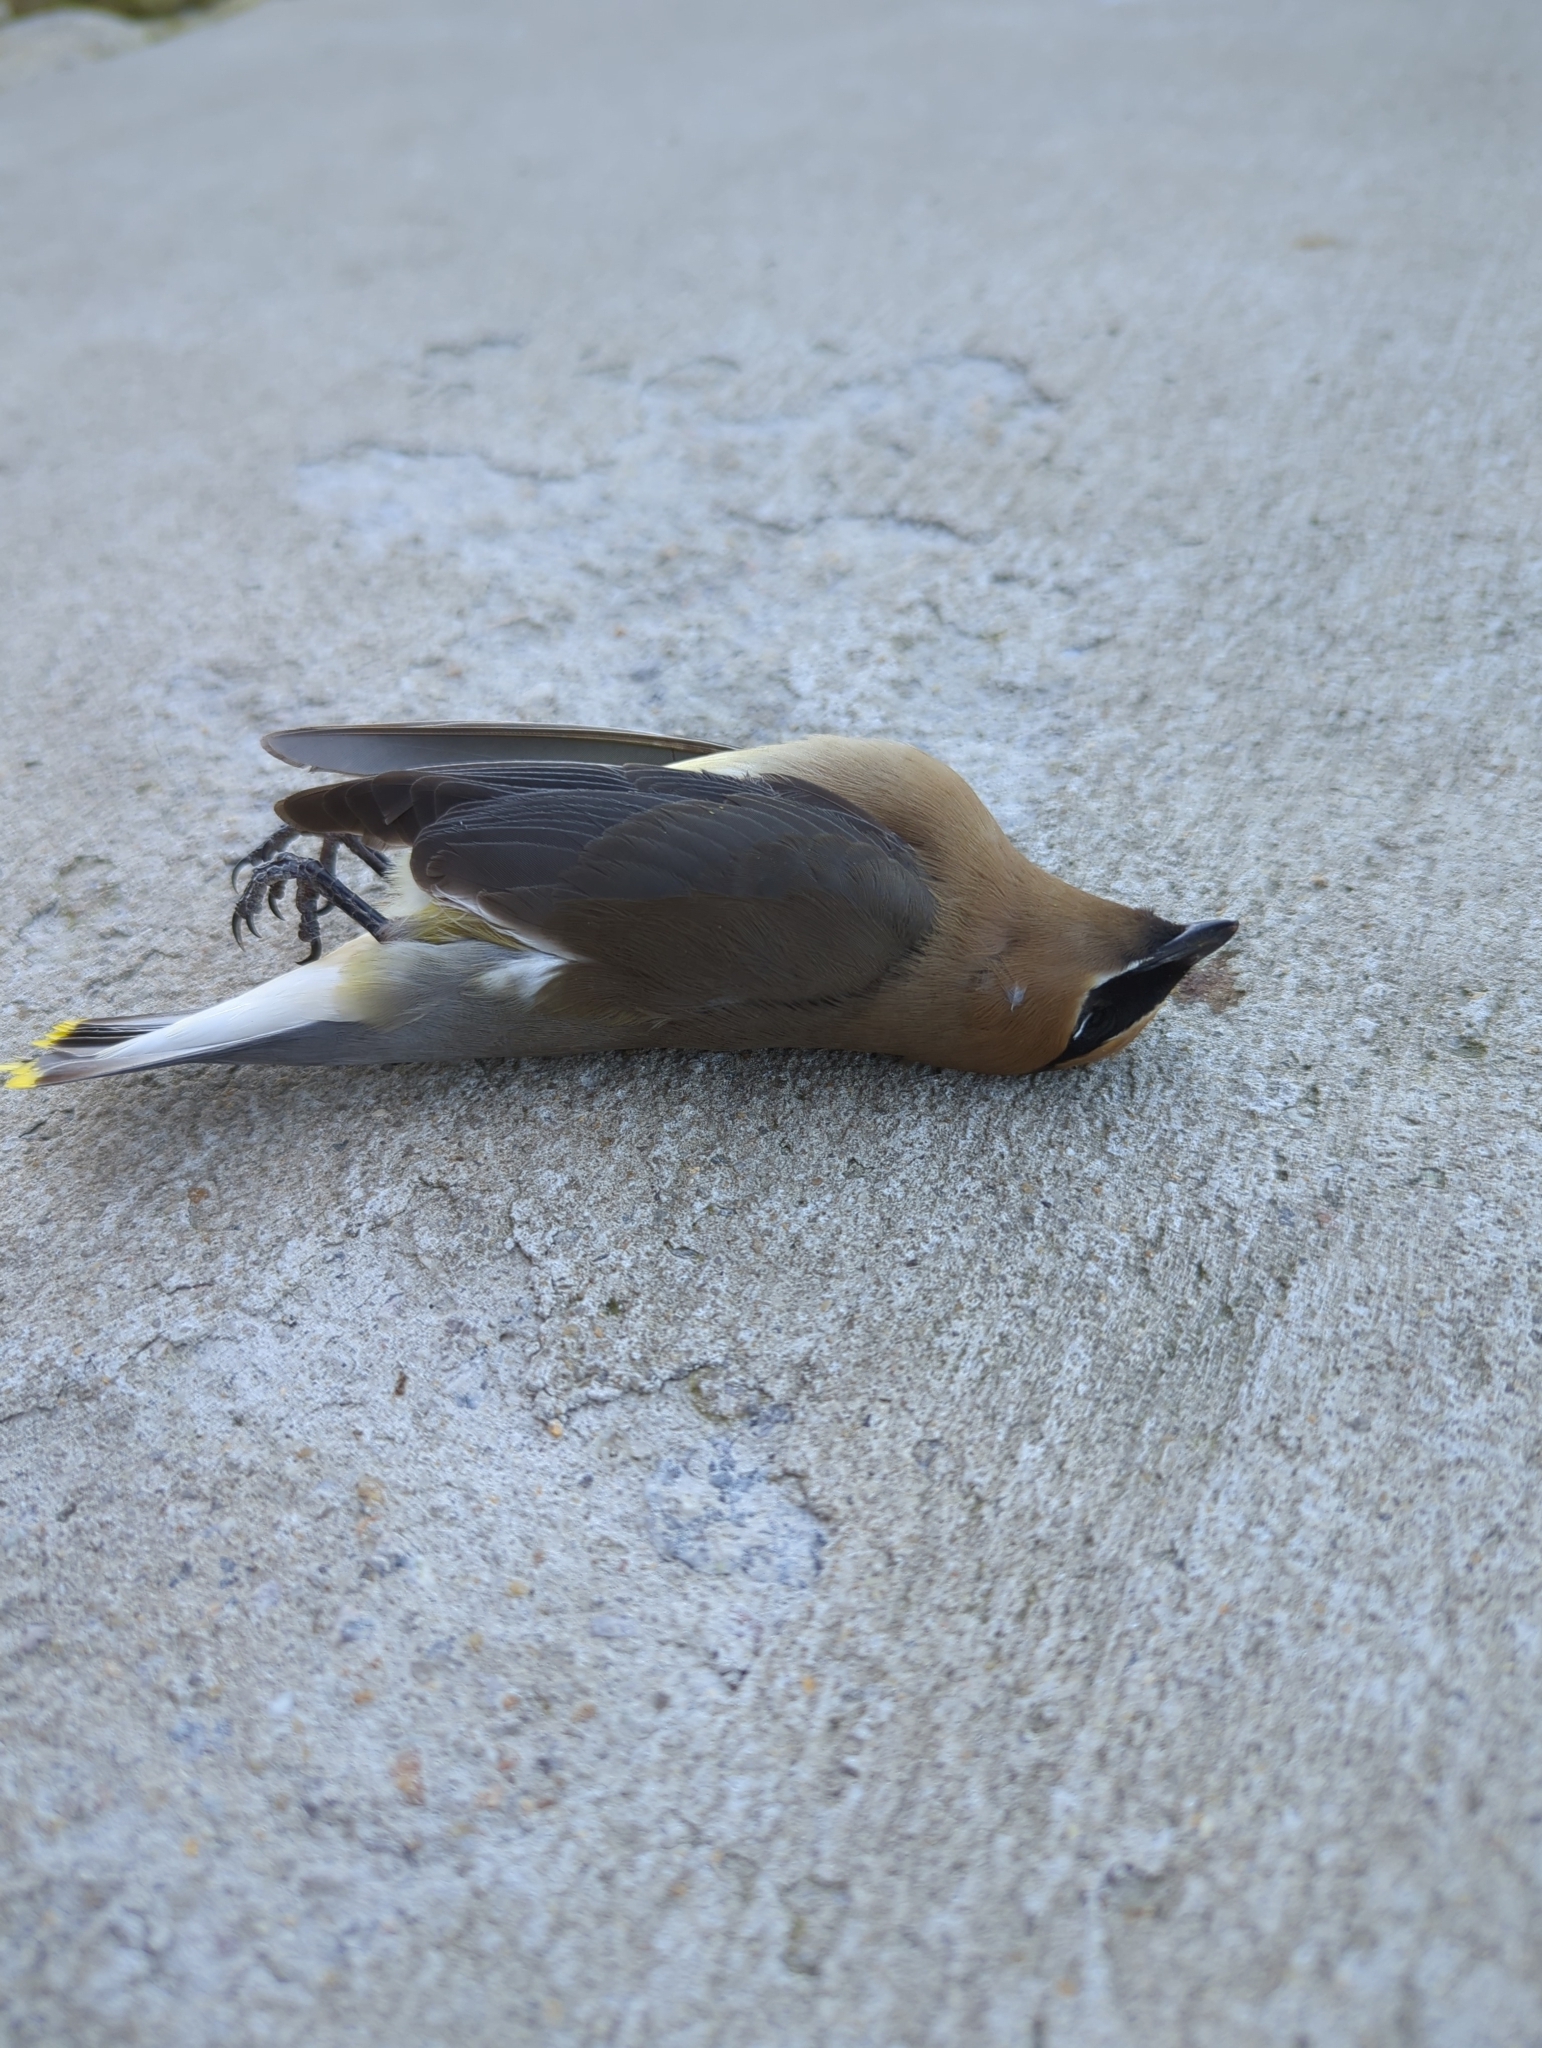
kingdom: Animalia
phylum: Chordata
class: Aves
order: Passeriformes
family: Bombycillidae
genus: Bombycilla
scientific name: Bombycilla cedrorum
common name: Cedar waxwing
